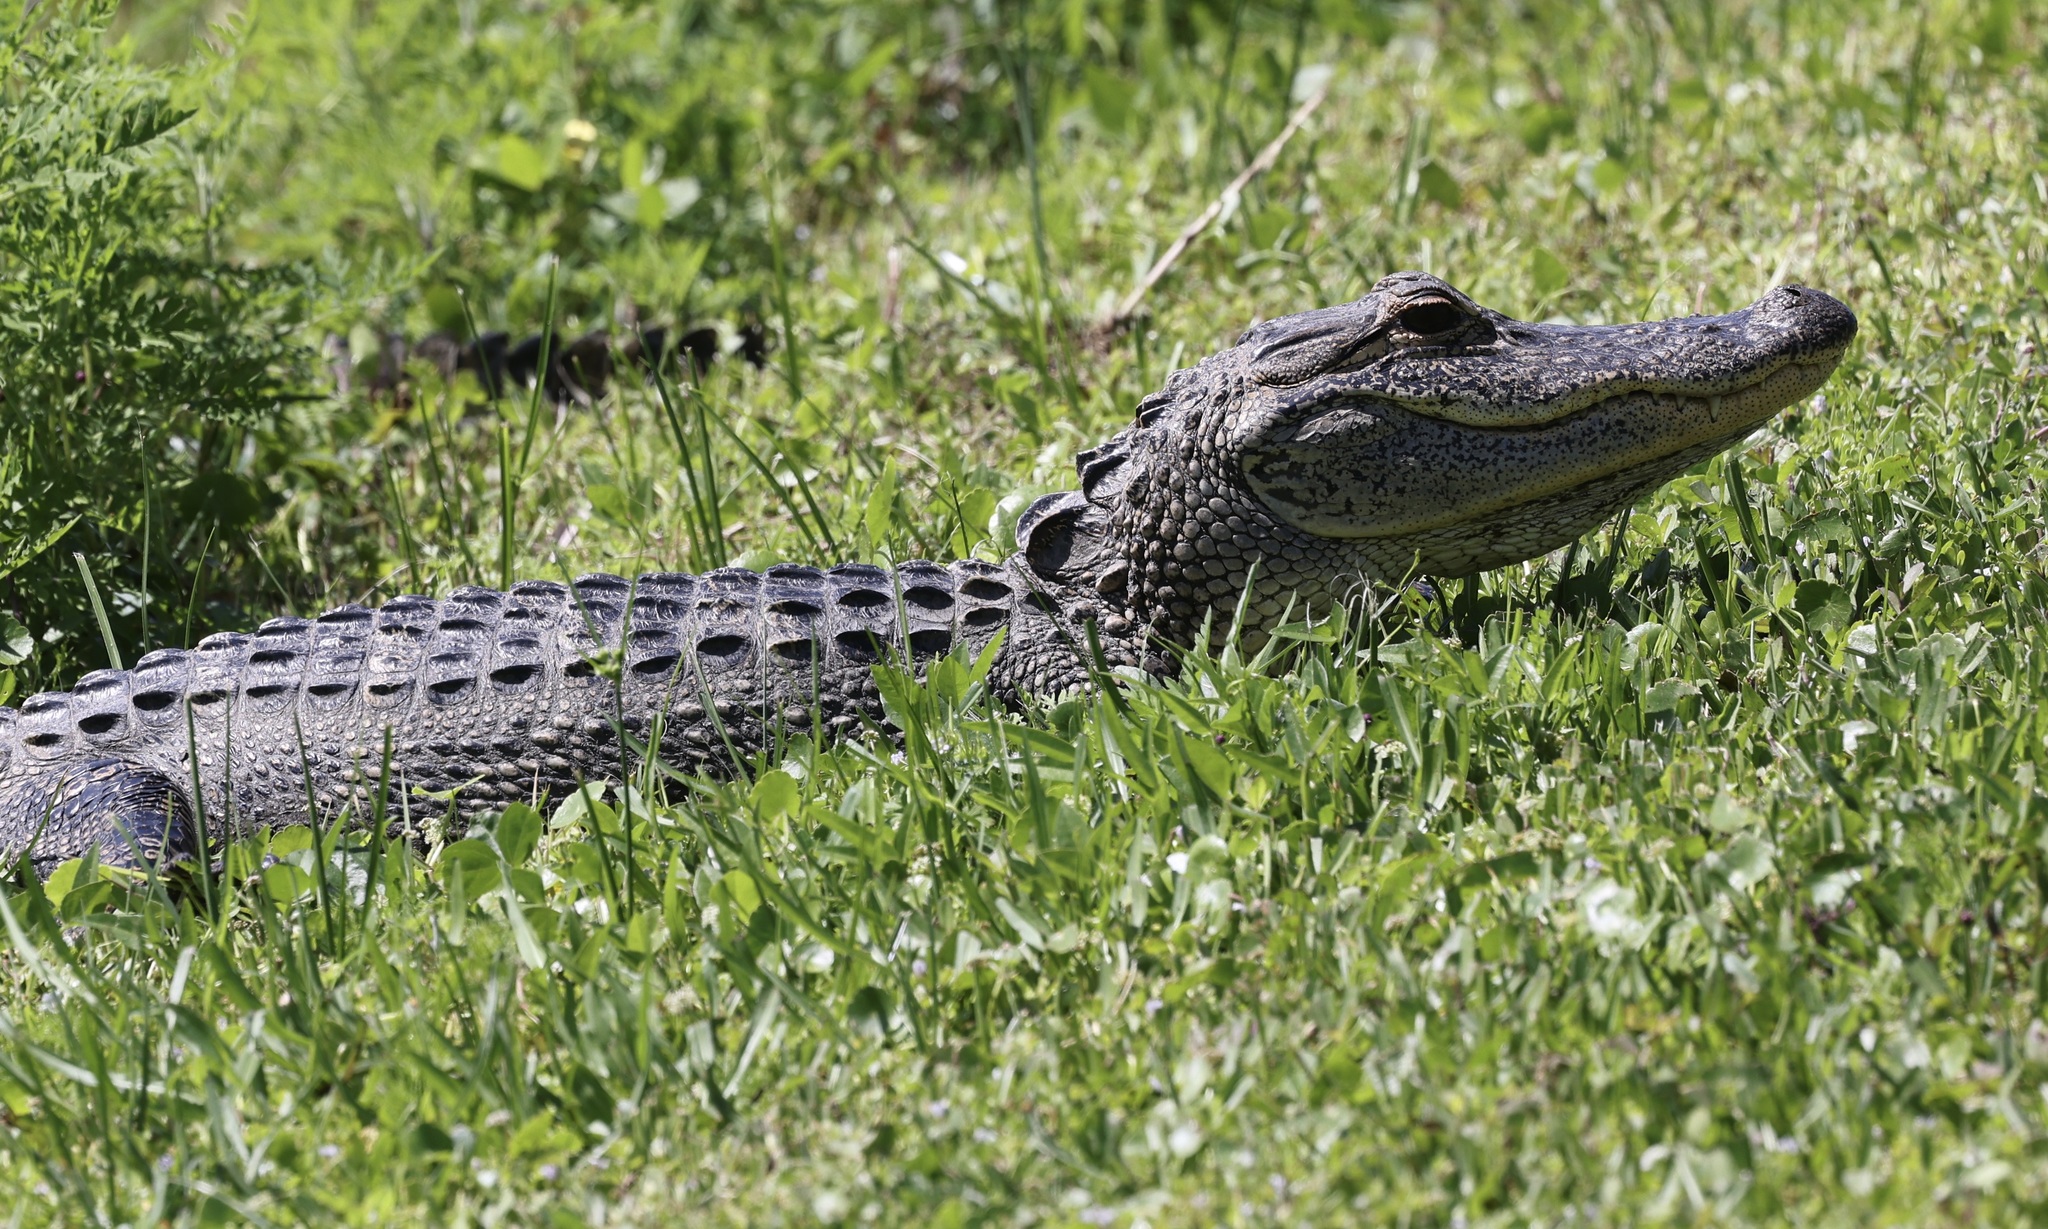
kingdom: Animalia
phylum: Chordata
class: Crocodylia
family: Alligatoridae
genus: Alligator
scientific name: Alligator mississippiensis
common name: American alligator
